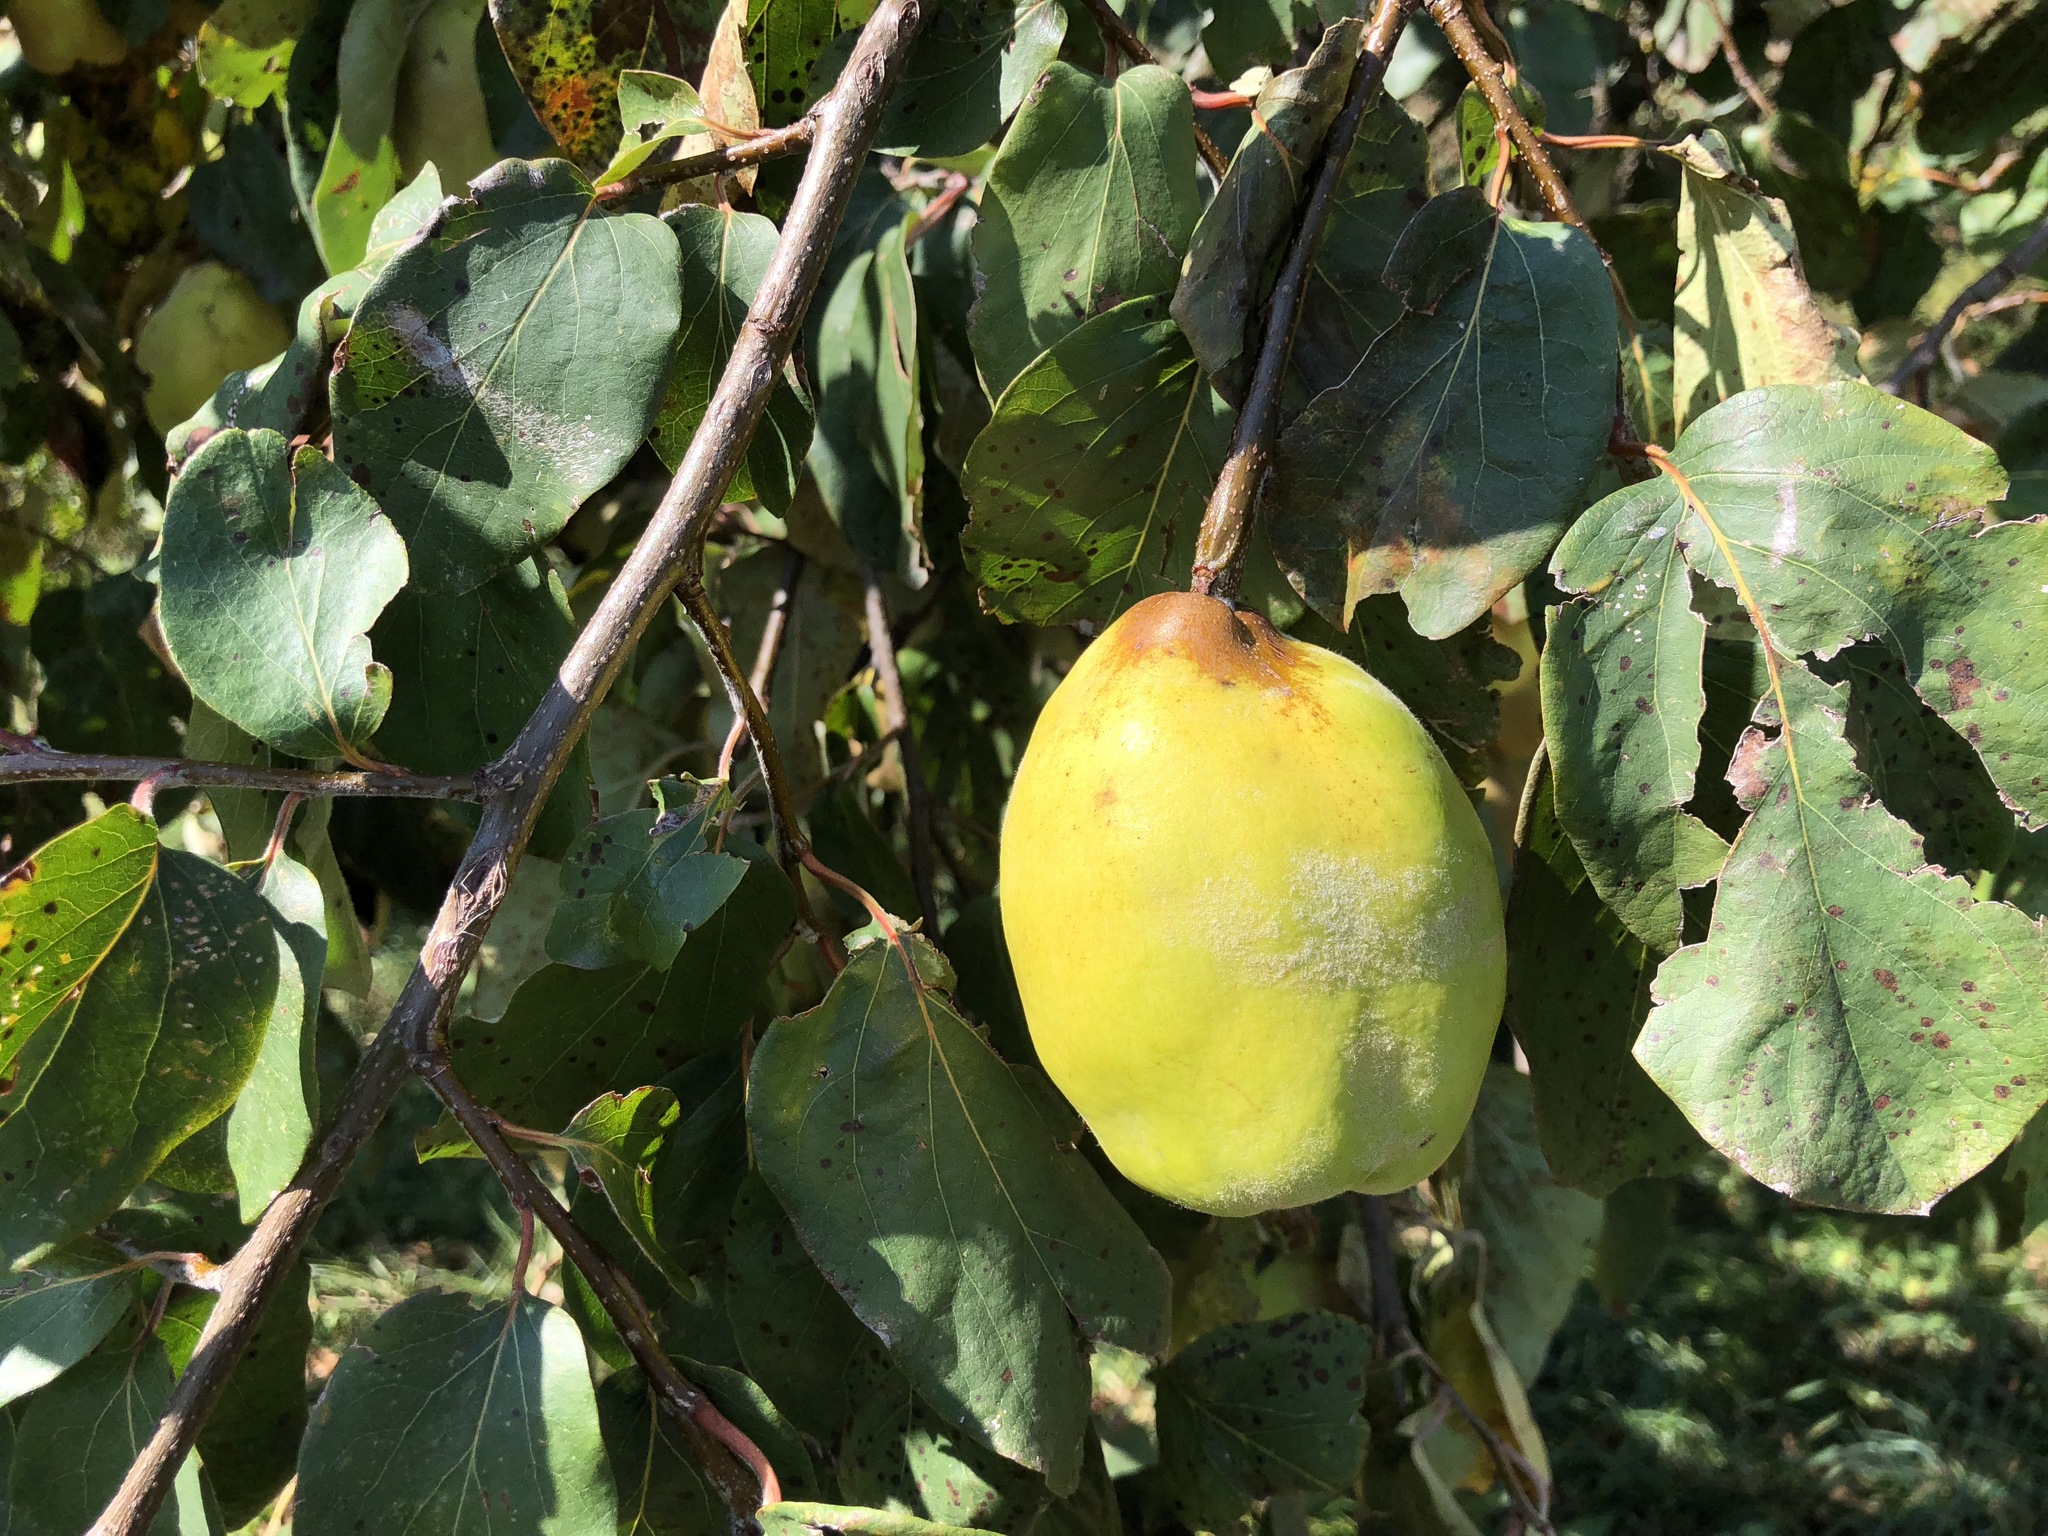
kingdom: Plantae
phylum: Tracheophyta
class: Magnoliopsida
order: Rosales
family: Rosaceae
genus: Cydonia
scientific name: Cydonia oblonga
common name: Quince
